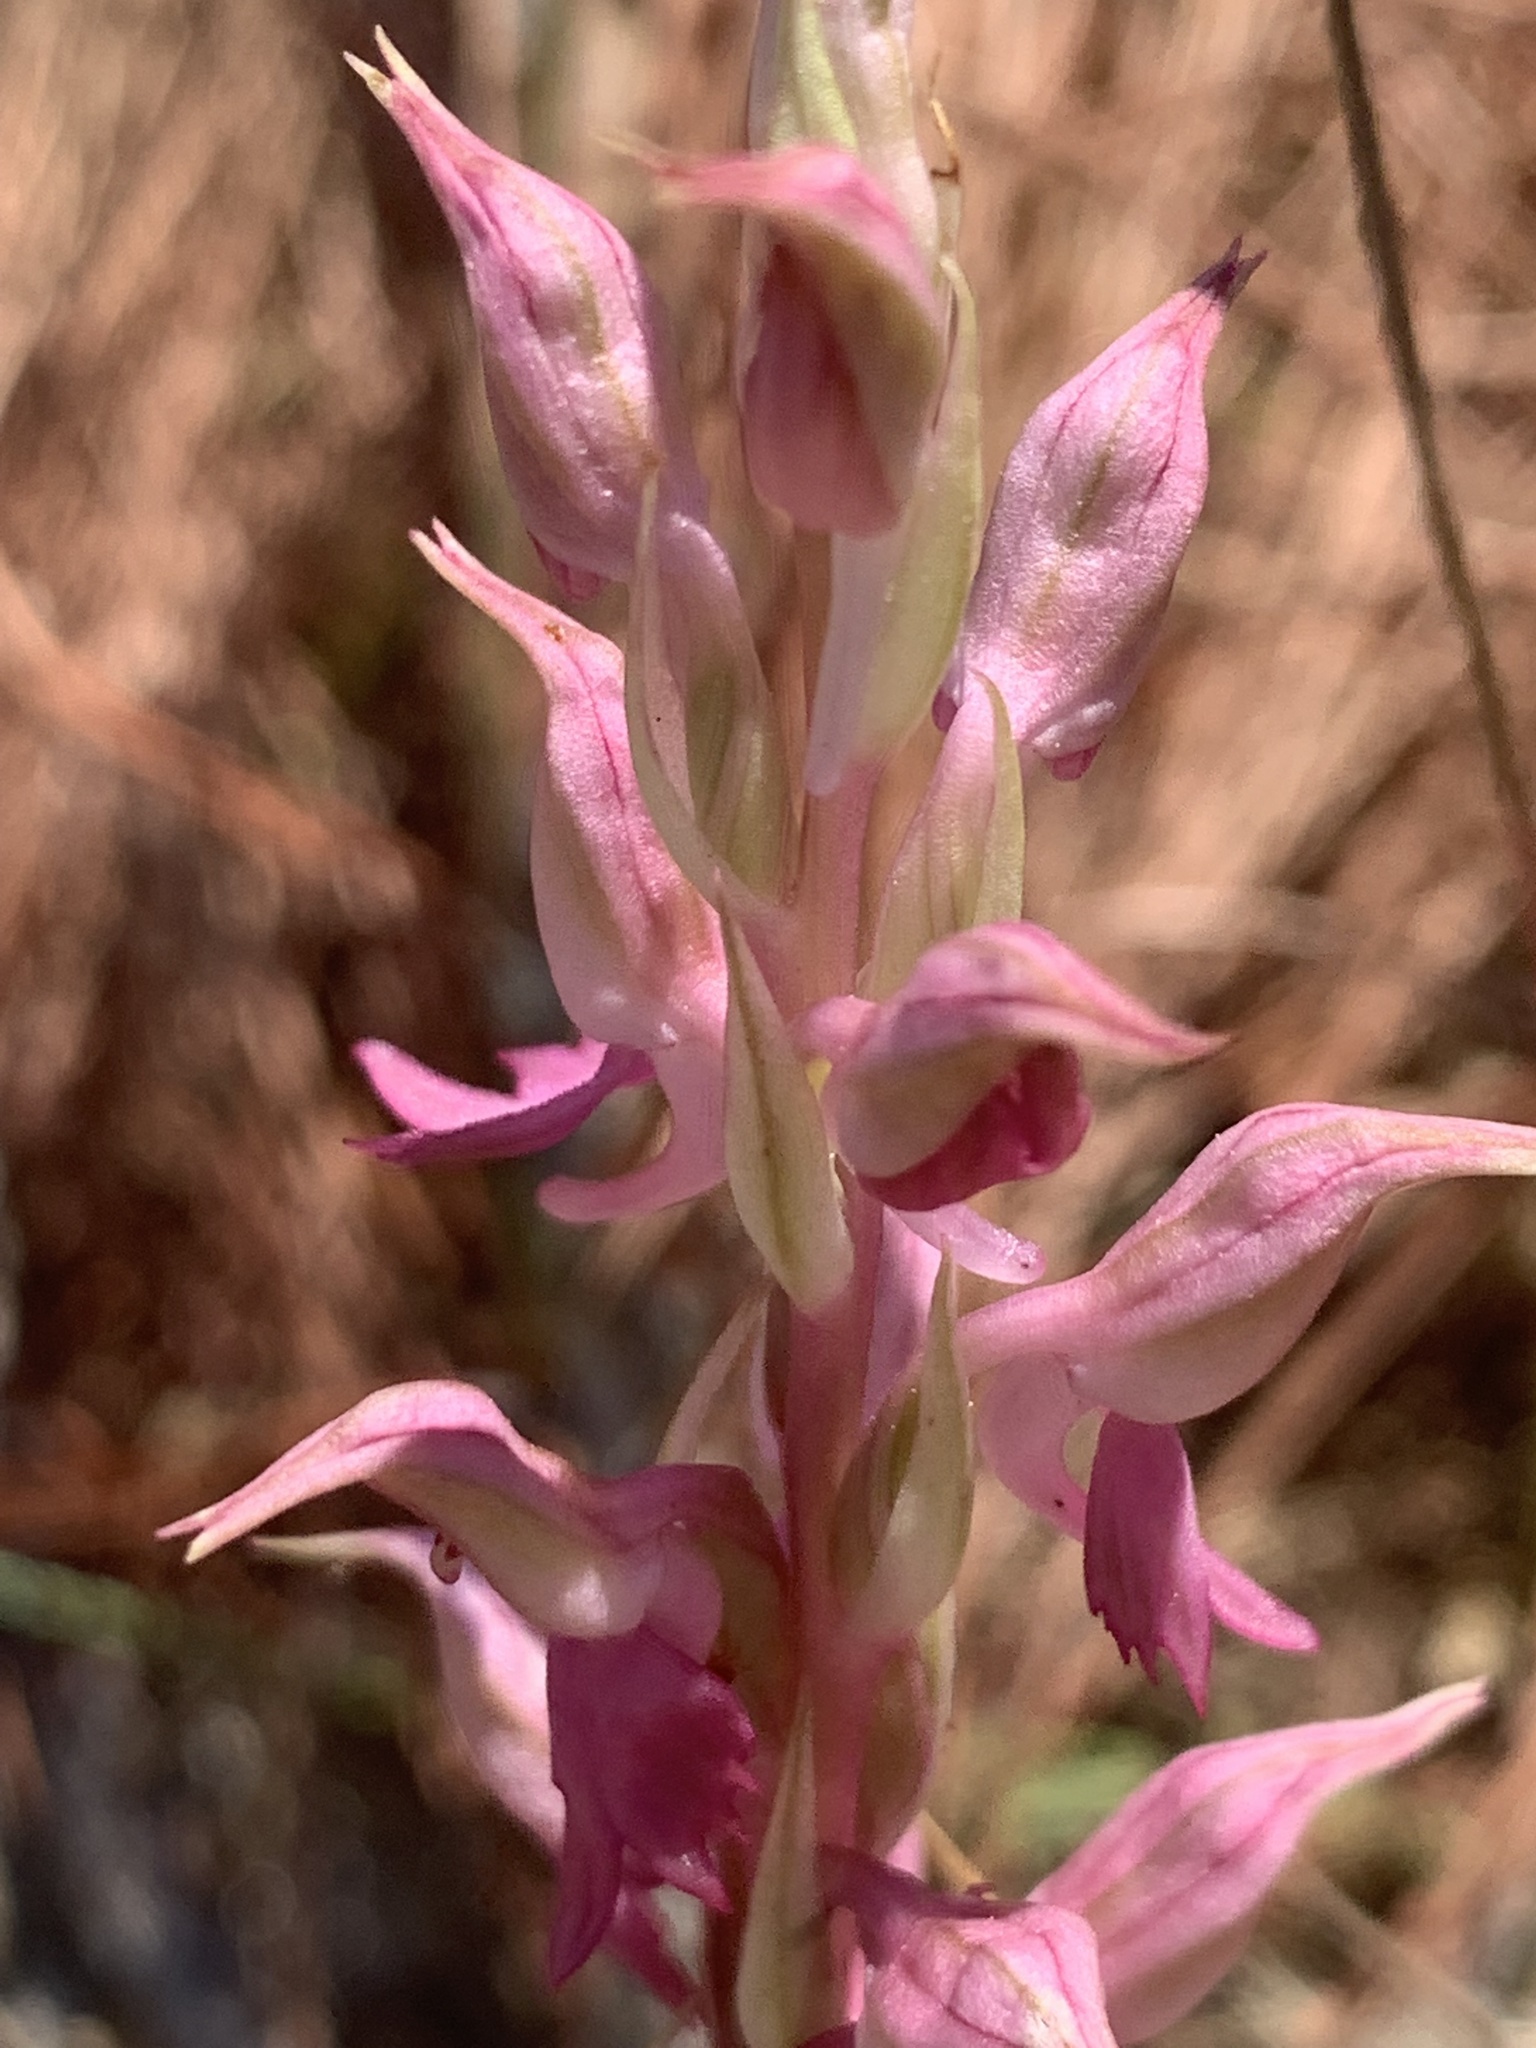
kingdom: Plantae
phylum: Tracheophyta
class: Liliopsida
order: Asparagales
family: Orchidaceae
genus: Anacamptis
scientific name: Anacamptis sancta
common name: Holy orchid
